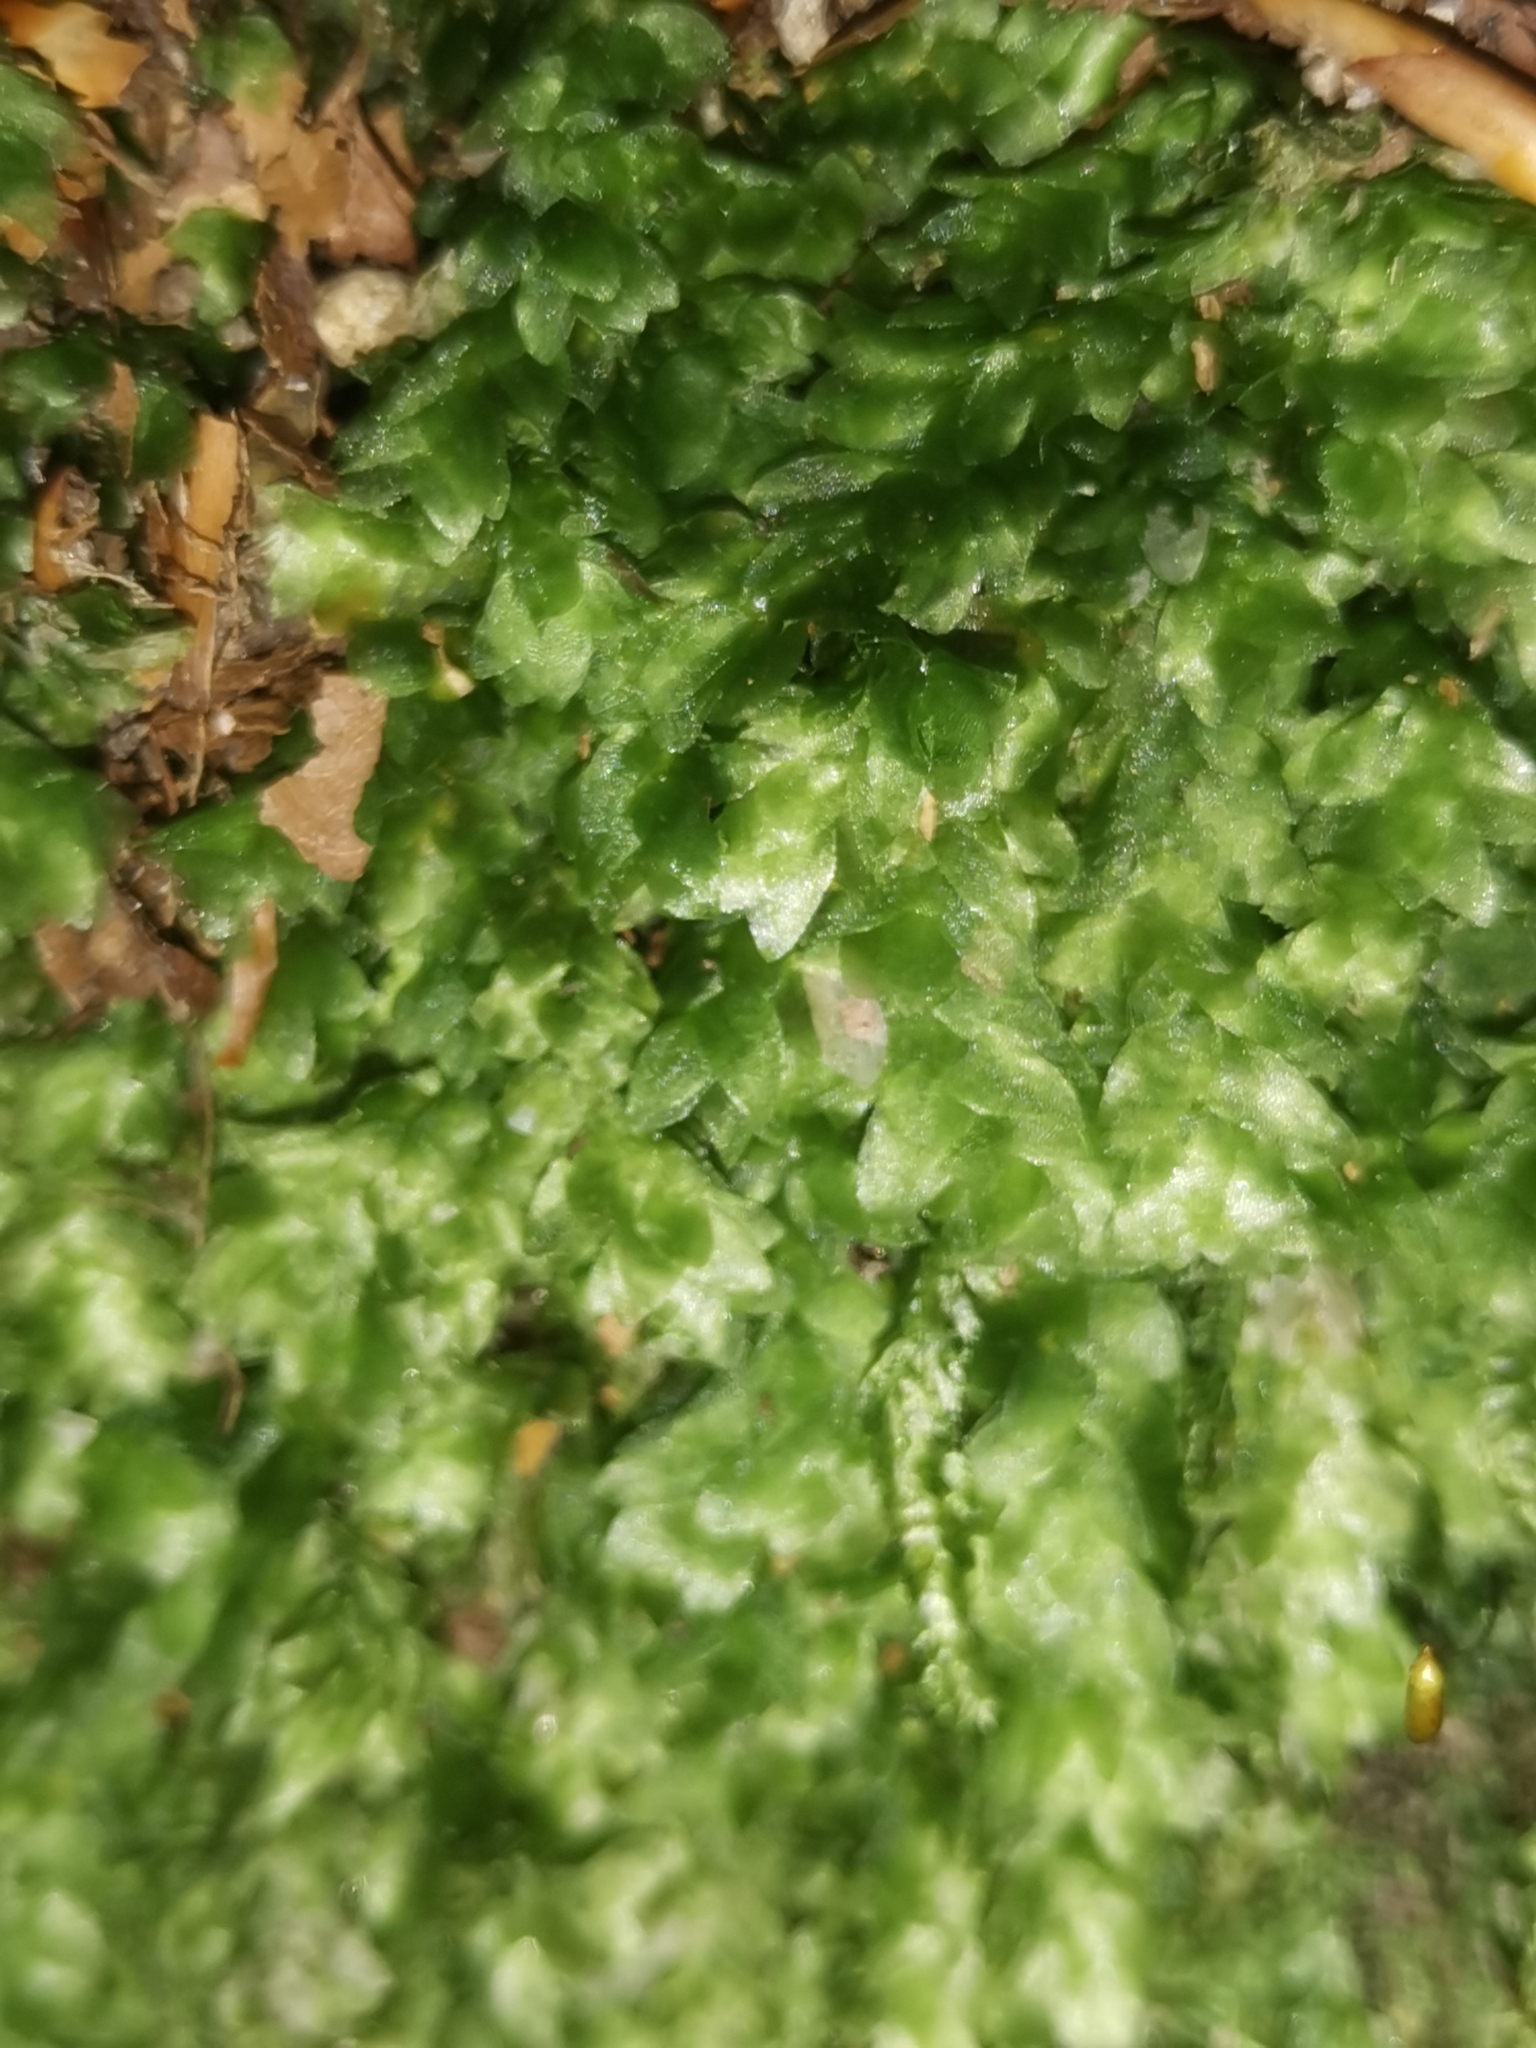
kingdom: Plantae
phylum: Bryophyta
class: Bryopsida
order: Hookeriales
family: Hookeriaceae
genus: Hookeria
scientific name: Hookeria lucens
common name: Shining hookeria
